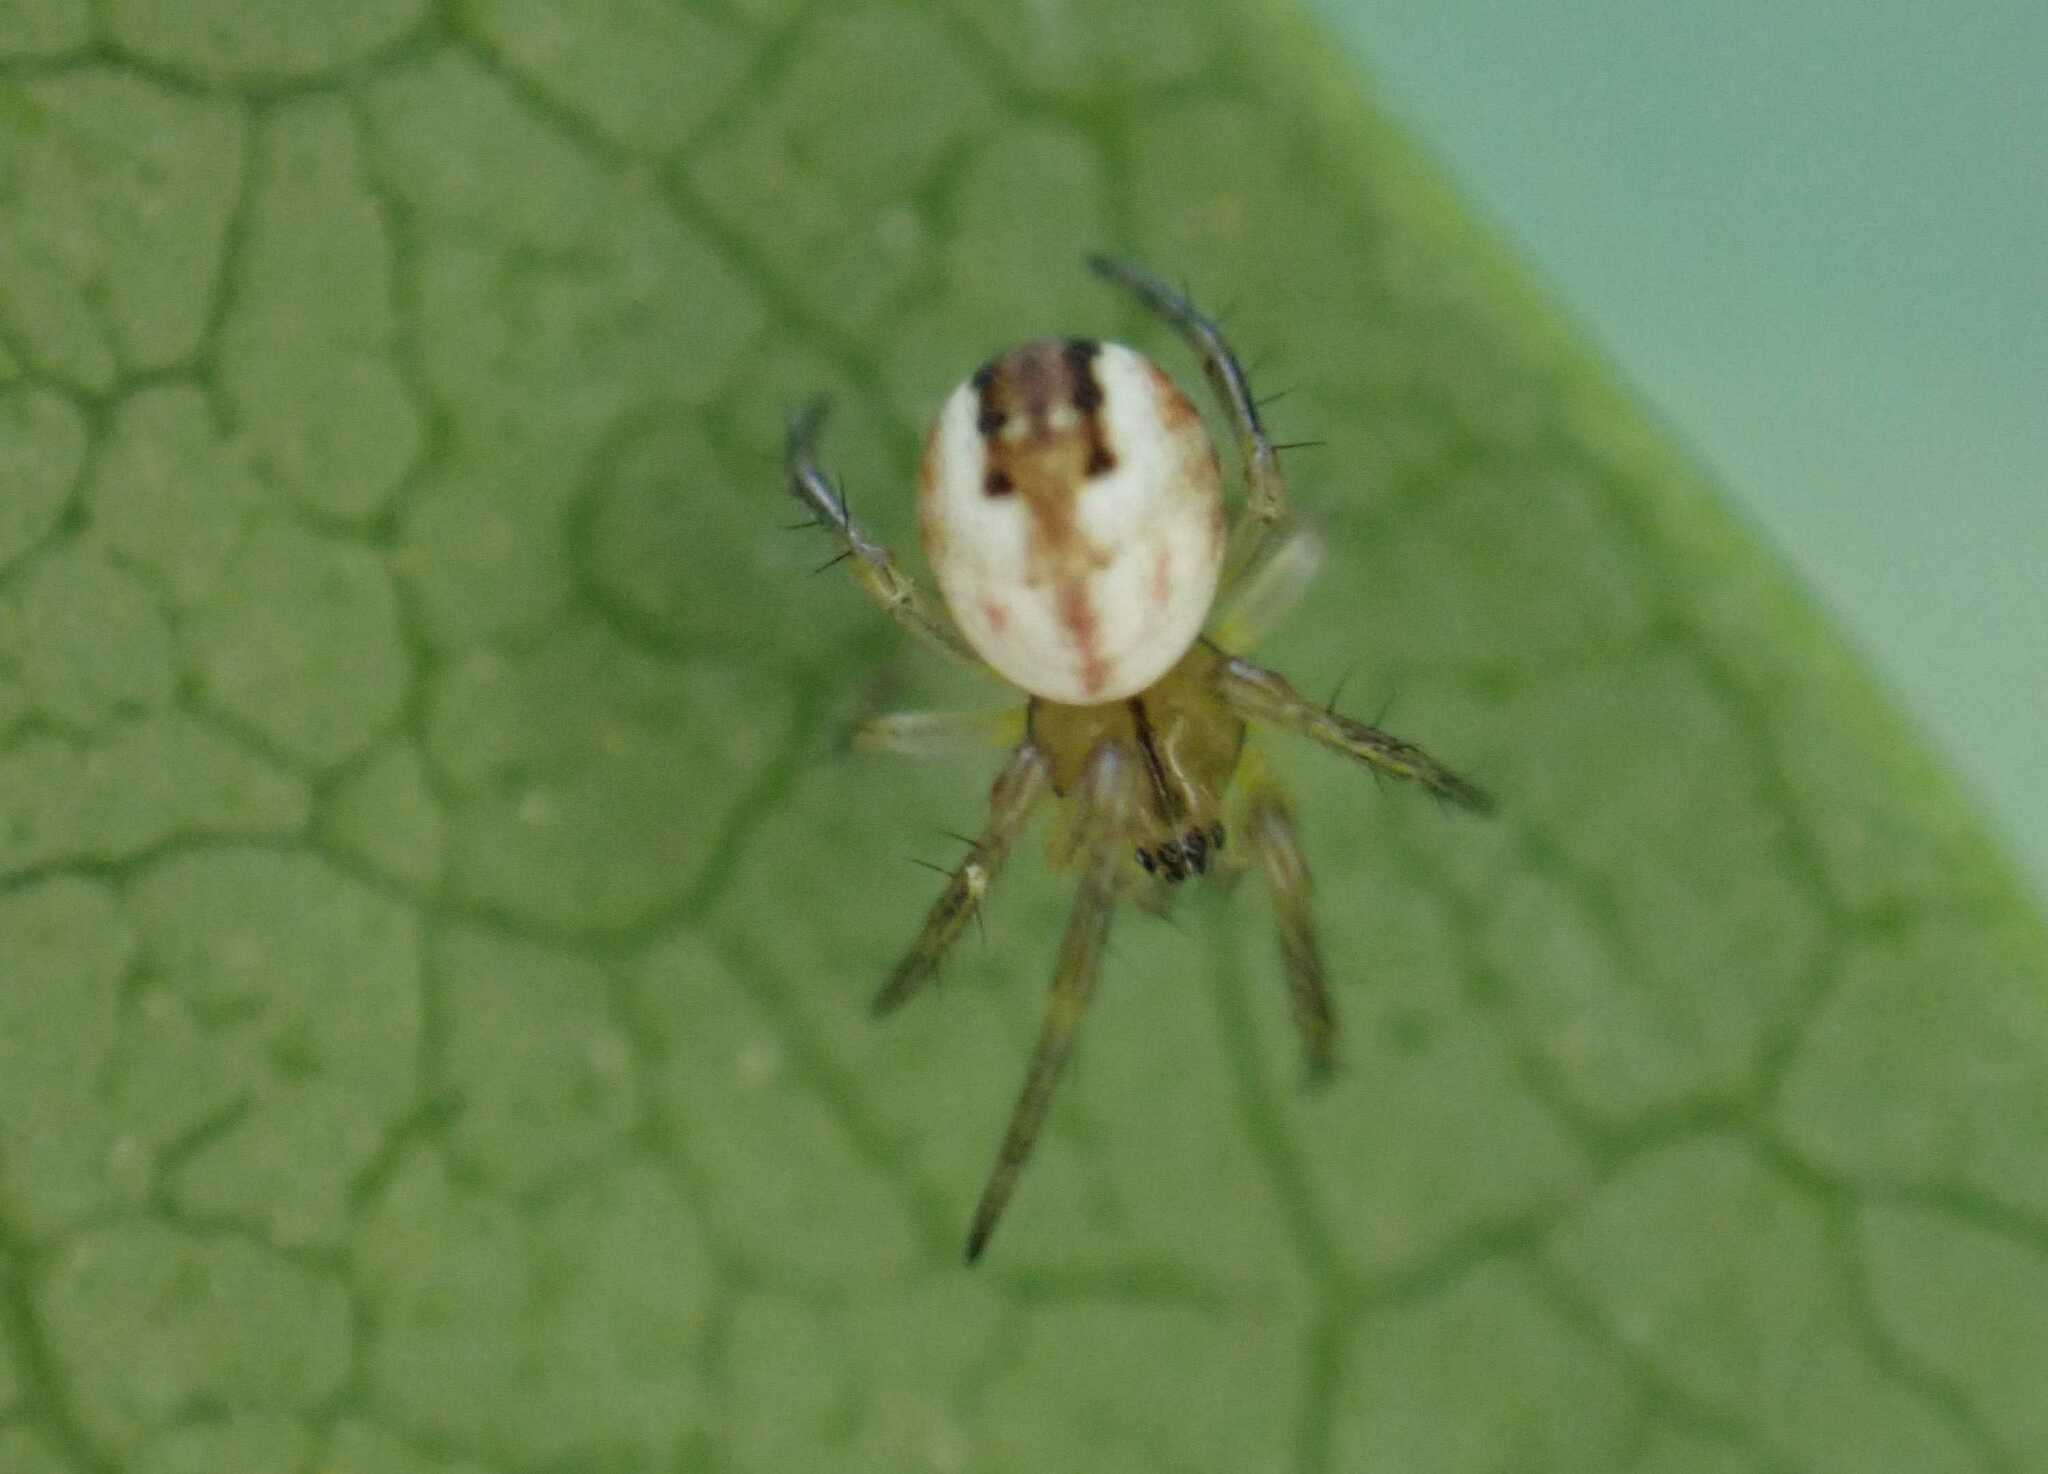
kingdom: Animalia
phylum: Arthropoda
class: Arachnida
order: Araneae
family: Araneidae
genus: Mangora
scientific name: Mangora acalypha
